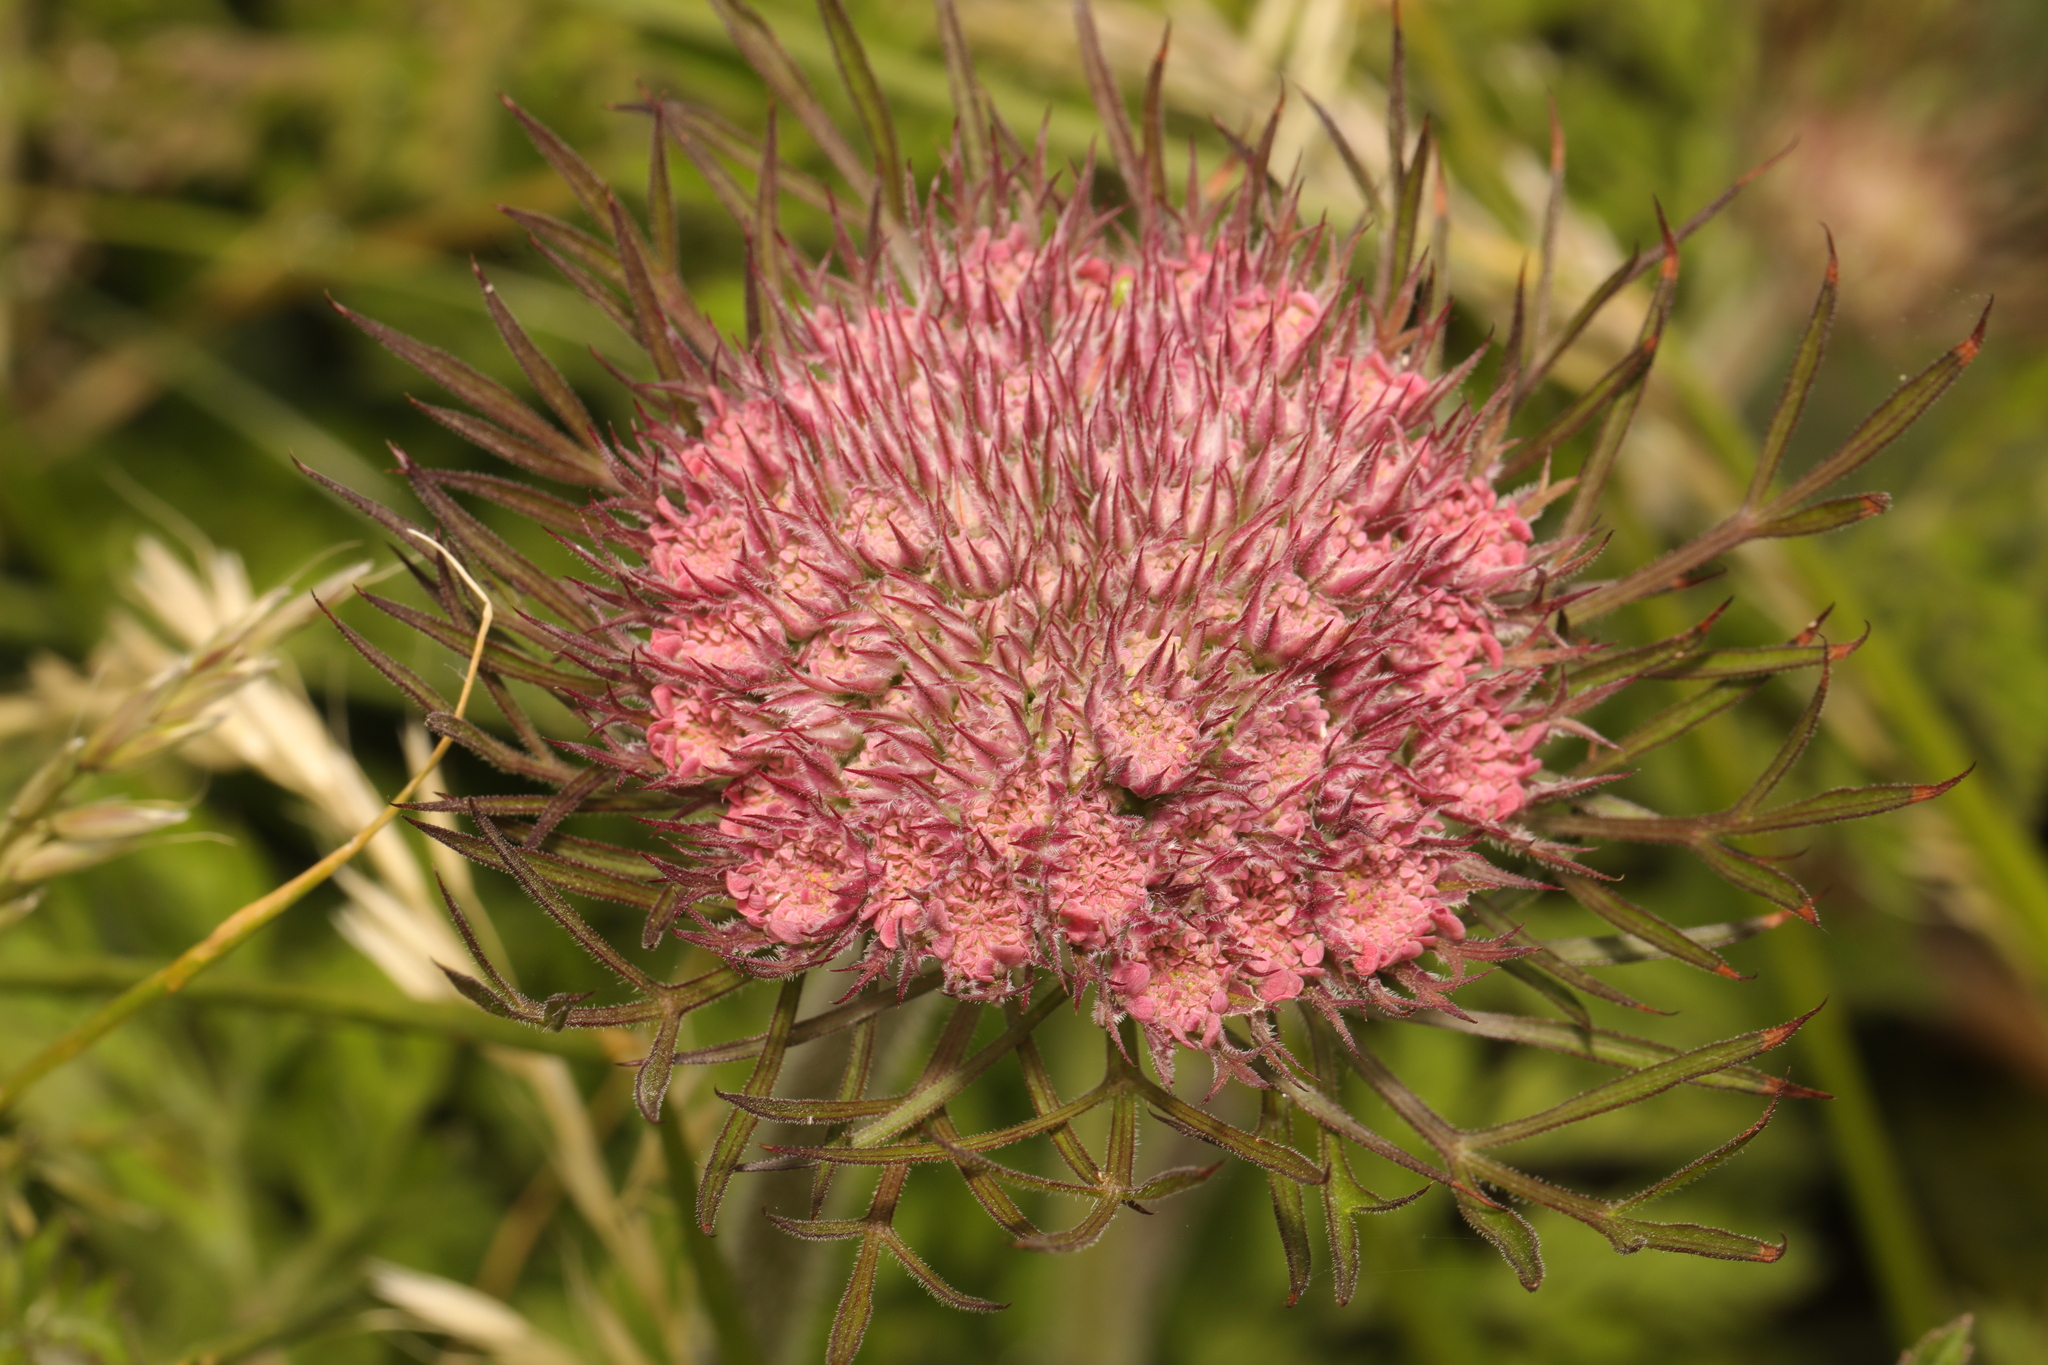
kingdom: Plantae
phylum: Tracheophyta
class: Magnoliopsida
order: Apiales
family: Apiaceae
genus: Daucus
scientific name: Daucus carota
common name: Wild carrot
